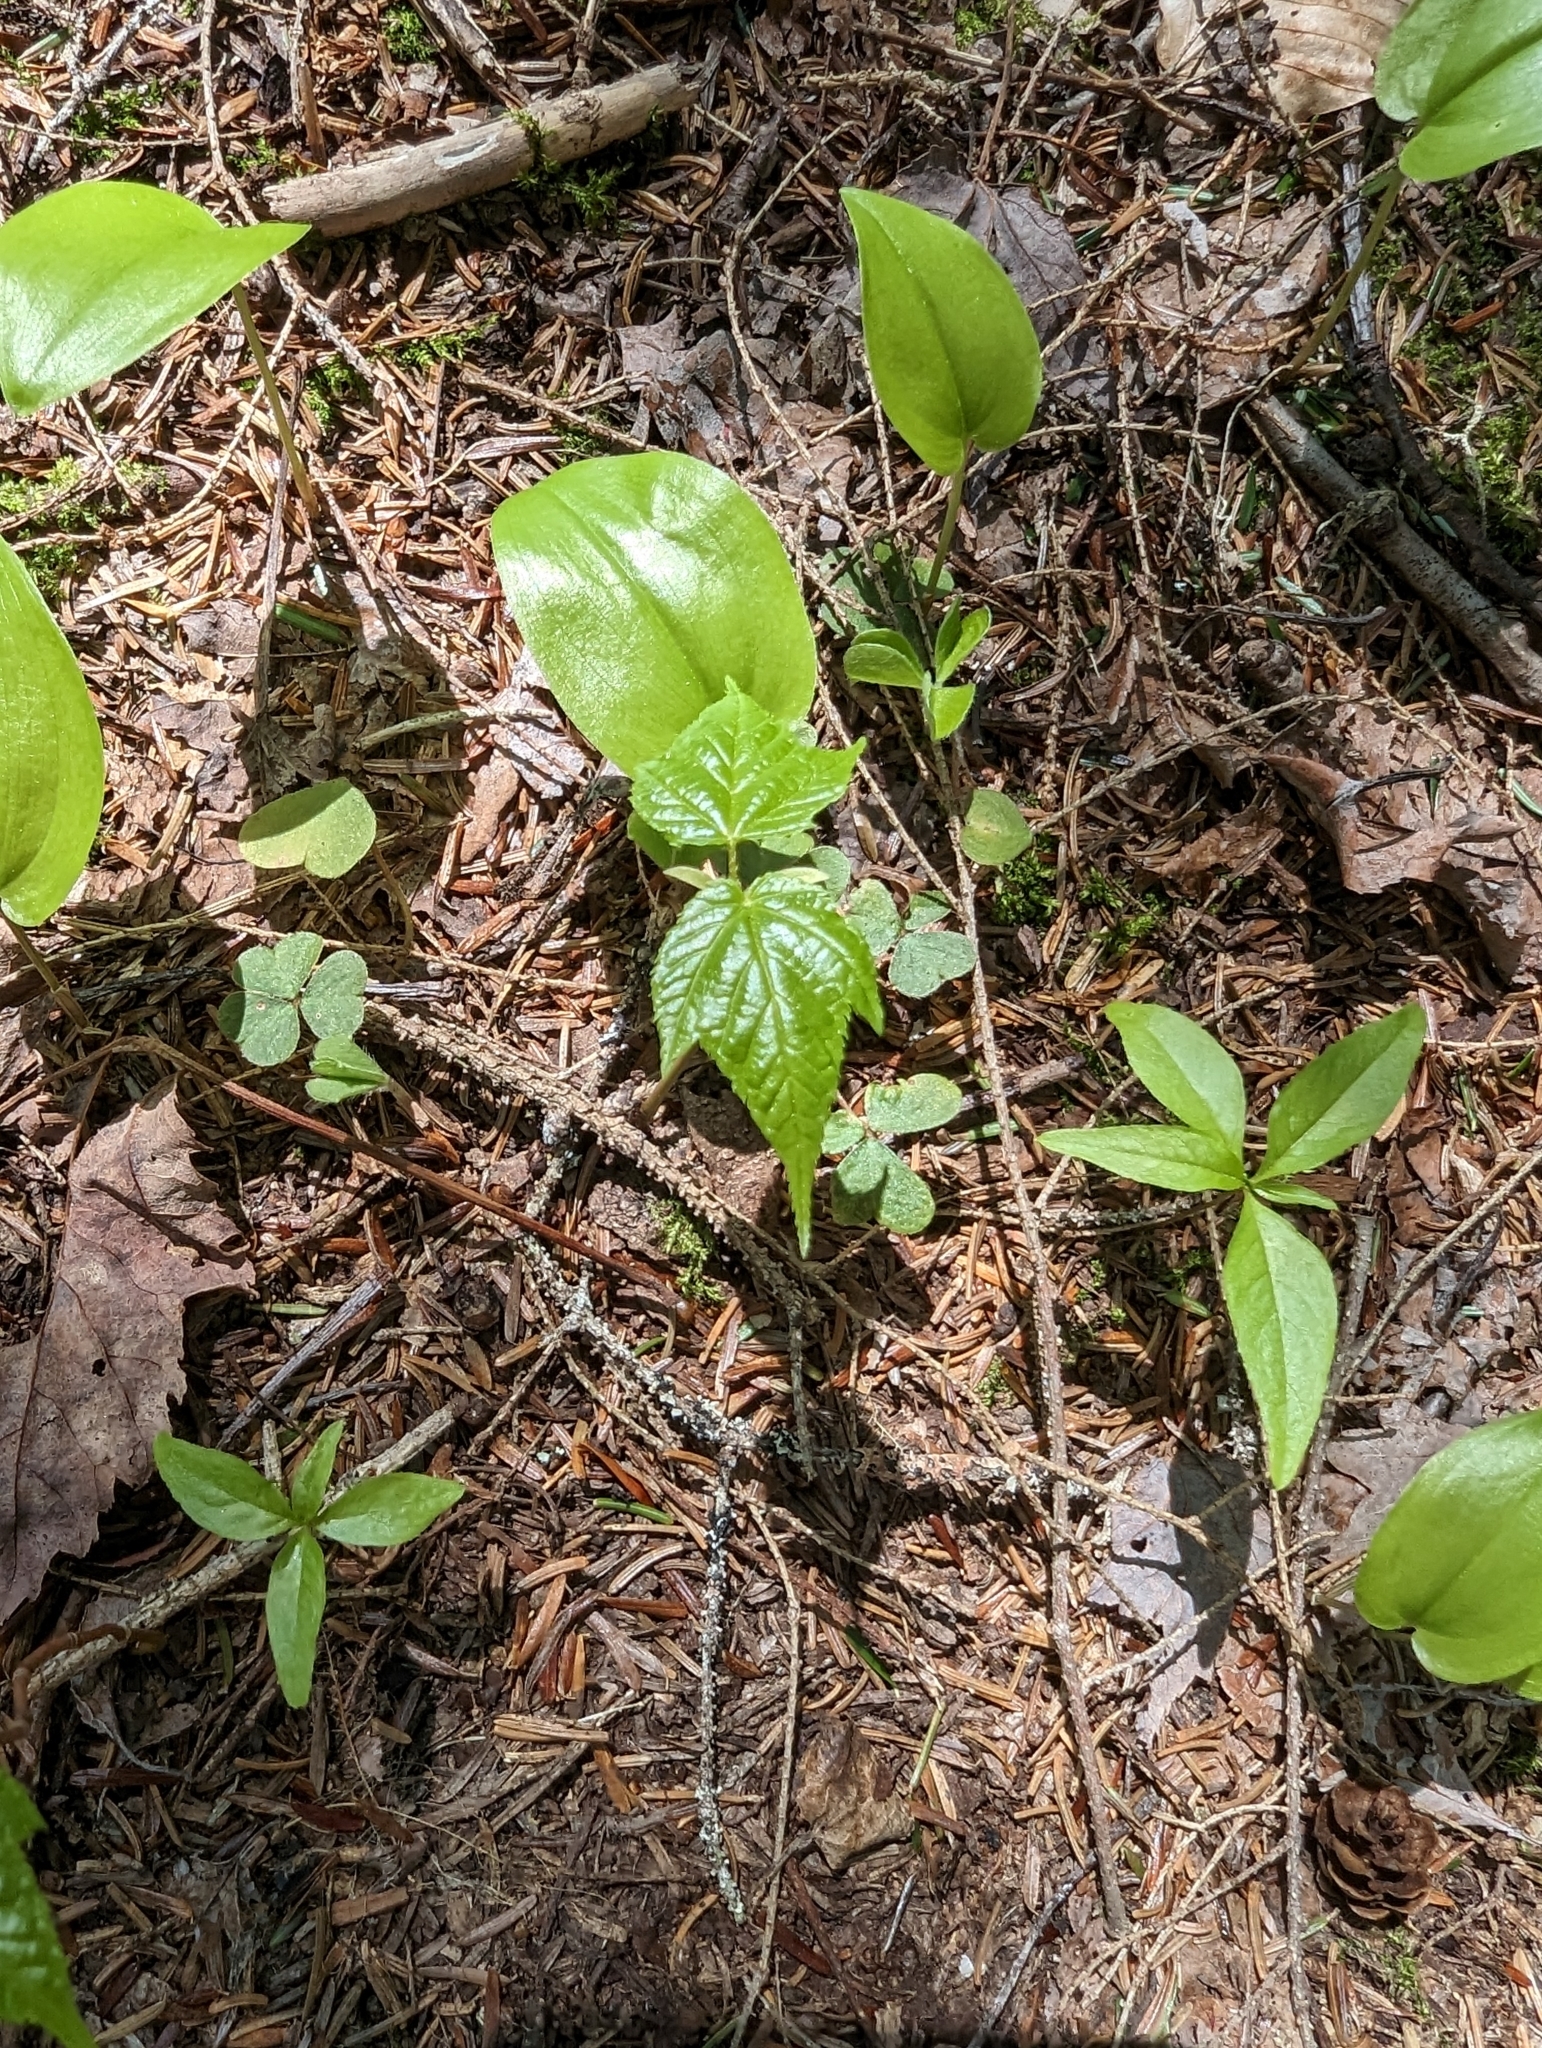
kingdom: Plantae
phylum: Tracheophyta
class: Liliopsida
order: Asparagales
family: Asparagaceae
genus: Maianthemum
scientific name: Maianthemum canadense
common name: False lily-of-the-valley
